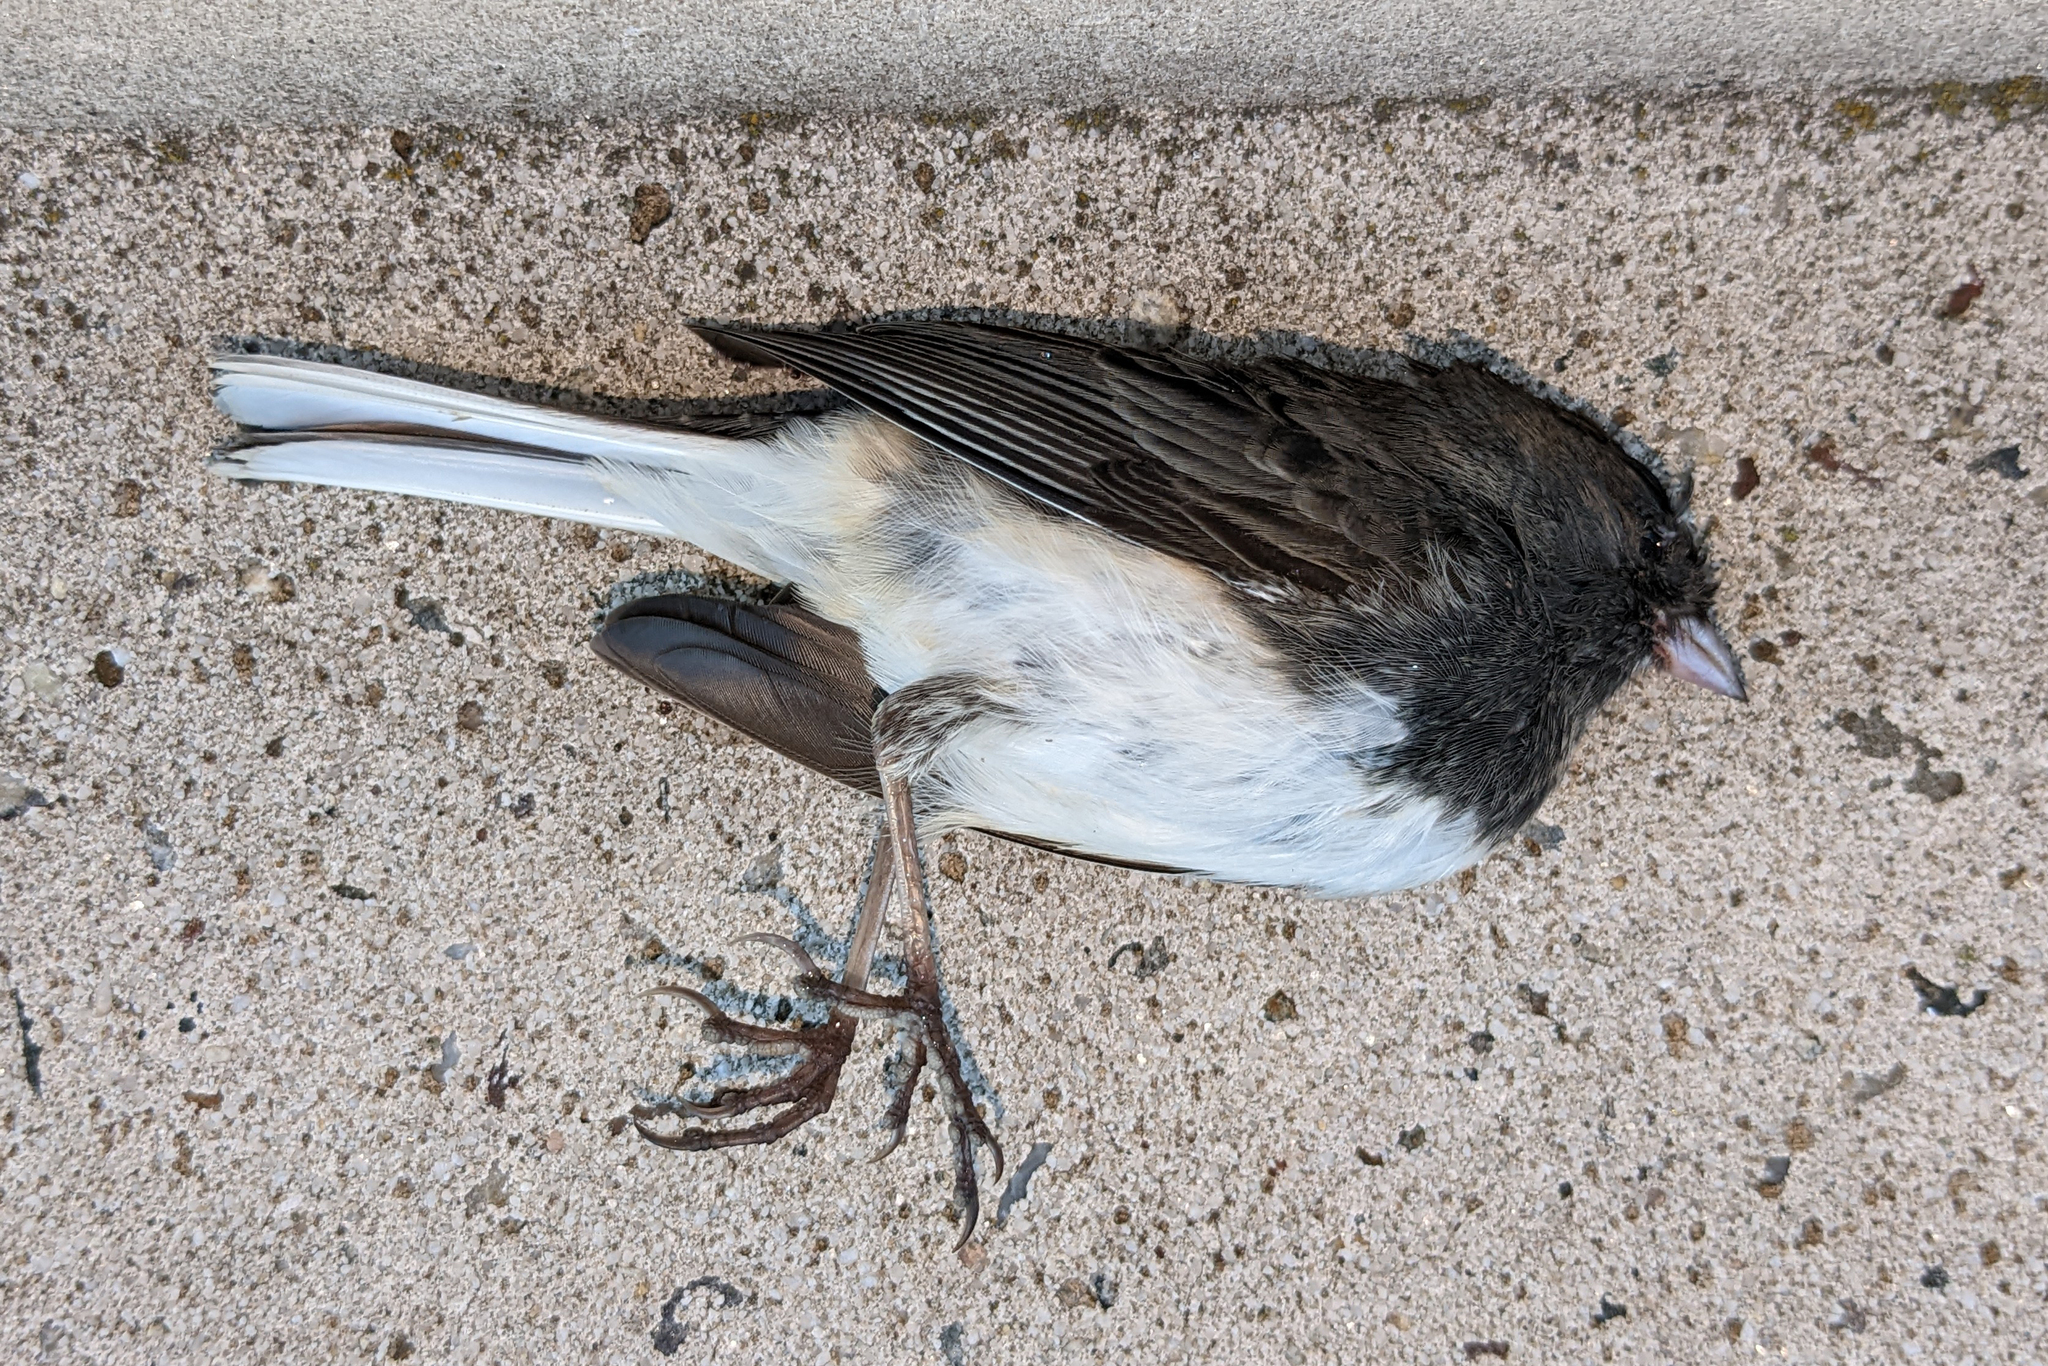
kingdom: Animalia
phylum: Chordata
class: Aves
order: Passeriformes
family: Passerellidae
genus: Junco
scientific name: Junco hyemalis
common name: Dark-eyed junco
